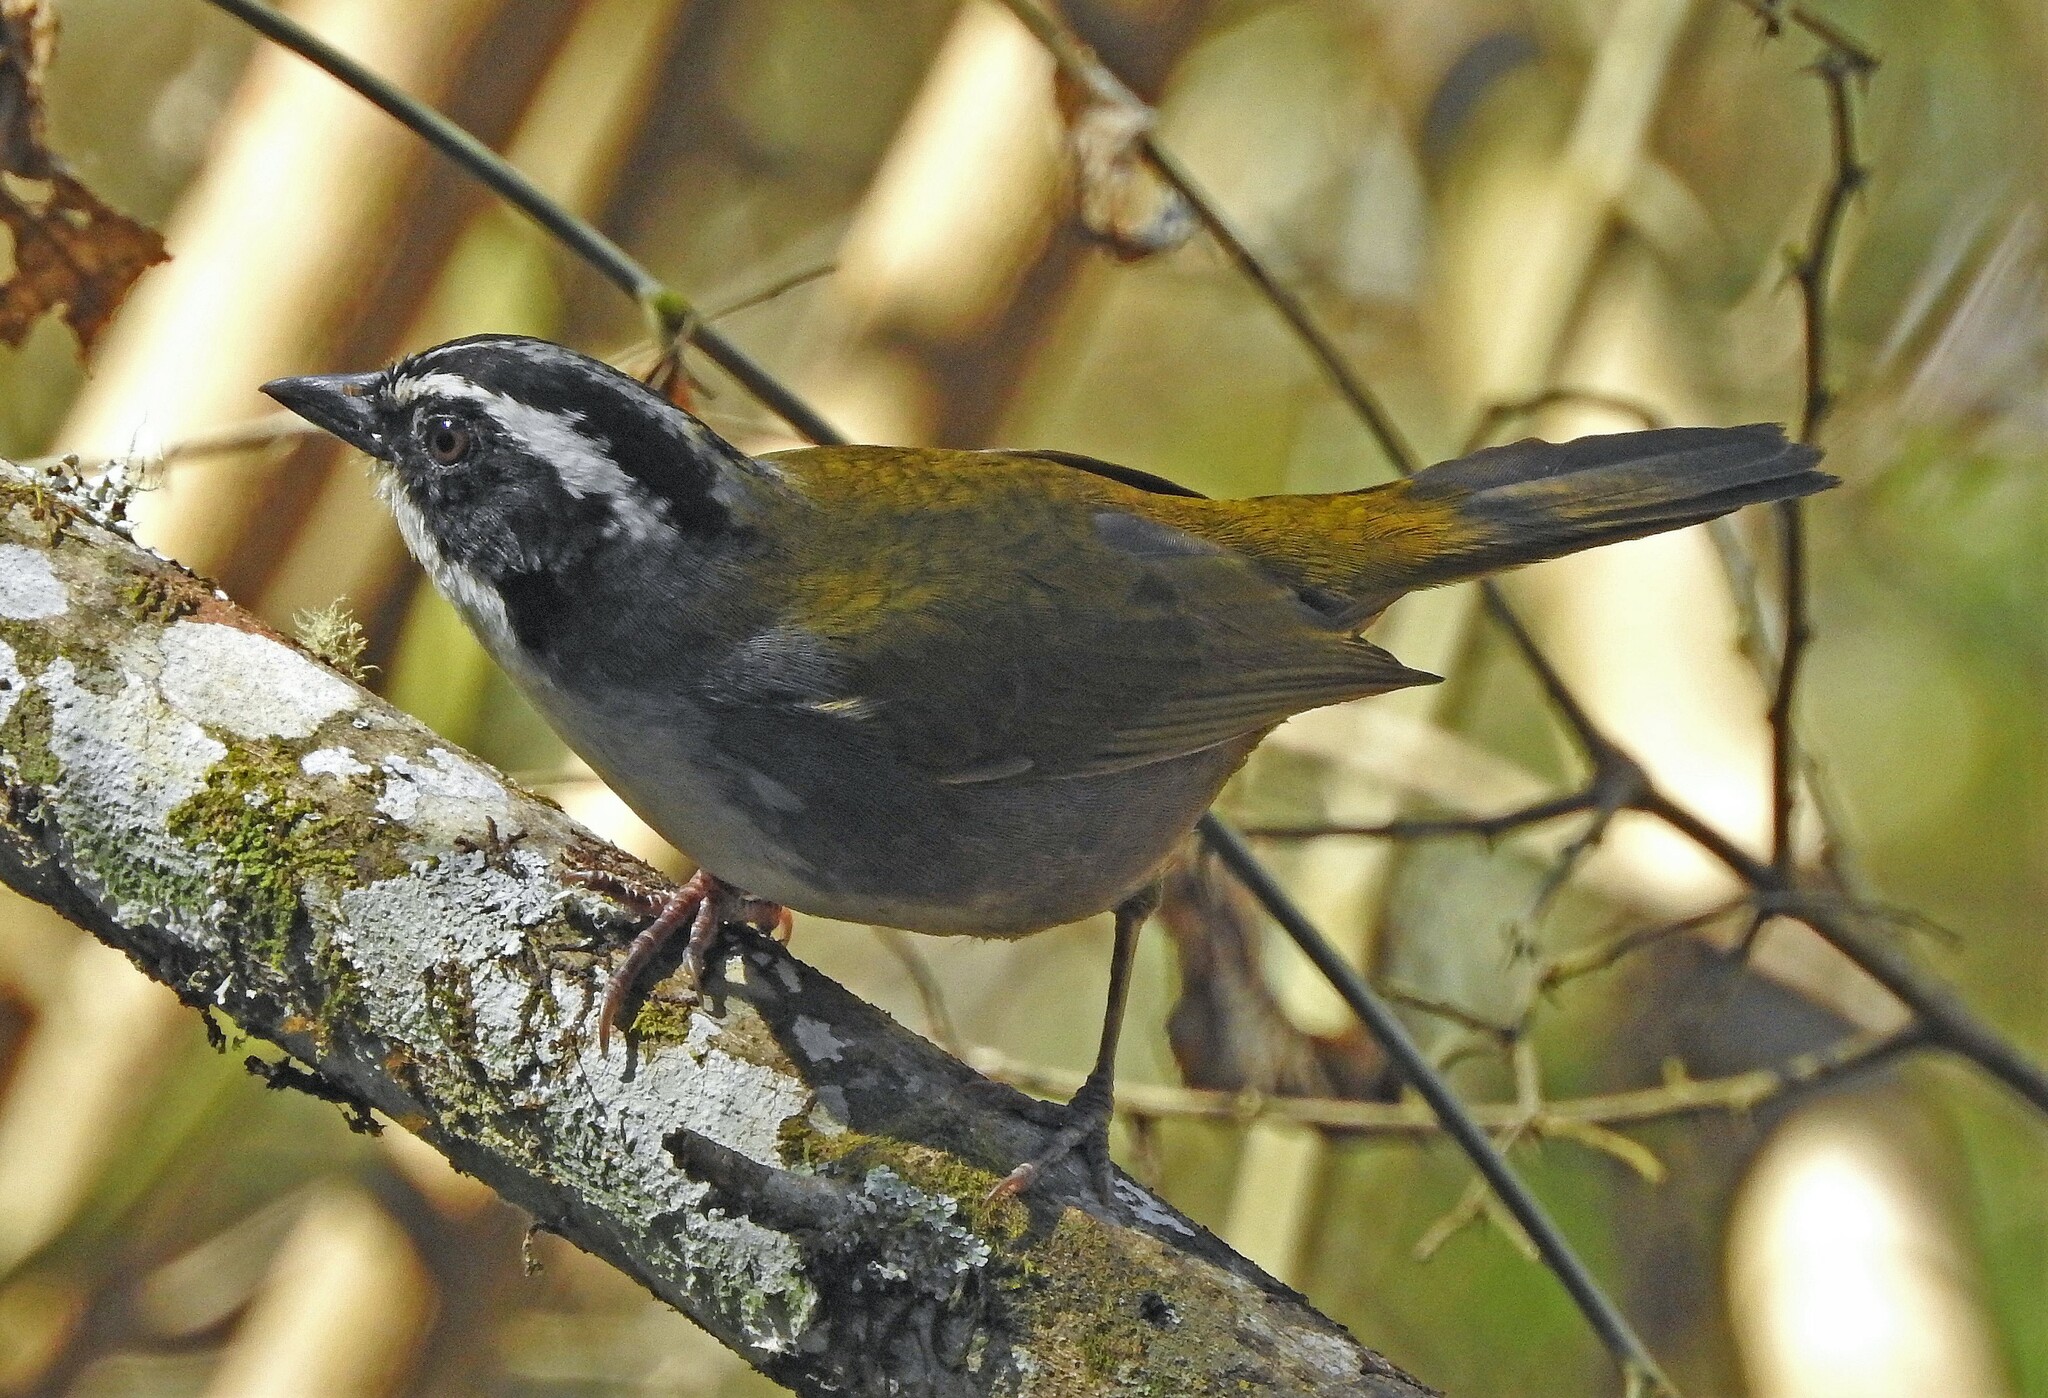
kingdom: Animalia
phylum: Chordata
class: Aves
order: Passeriformes
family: Passerellidae
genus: Arremon
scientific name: Arremon torquatus
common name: White-browed brushfinch
